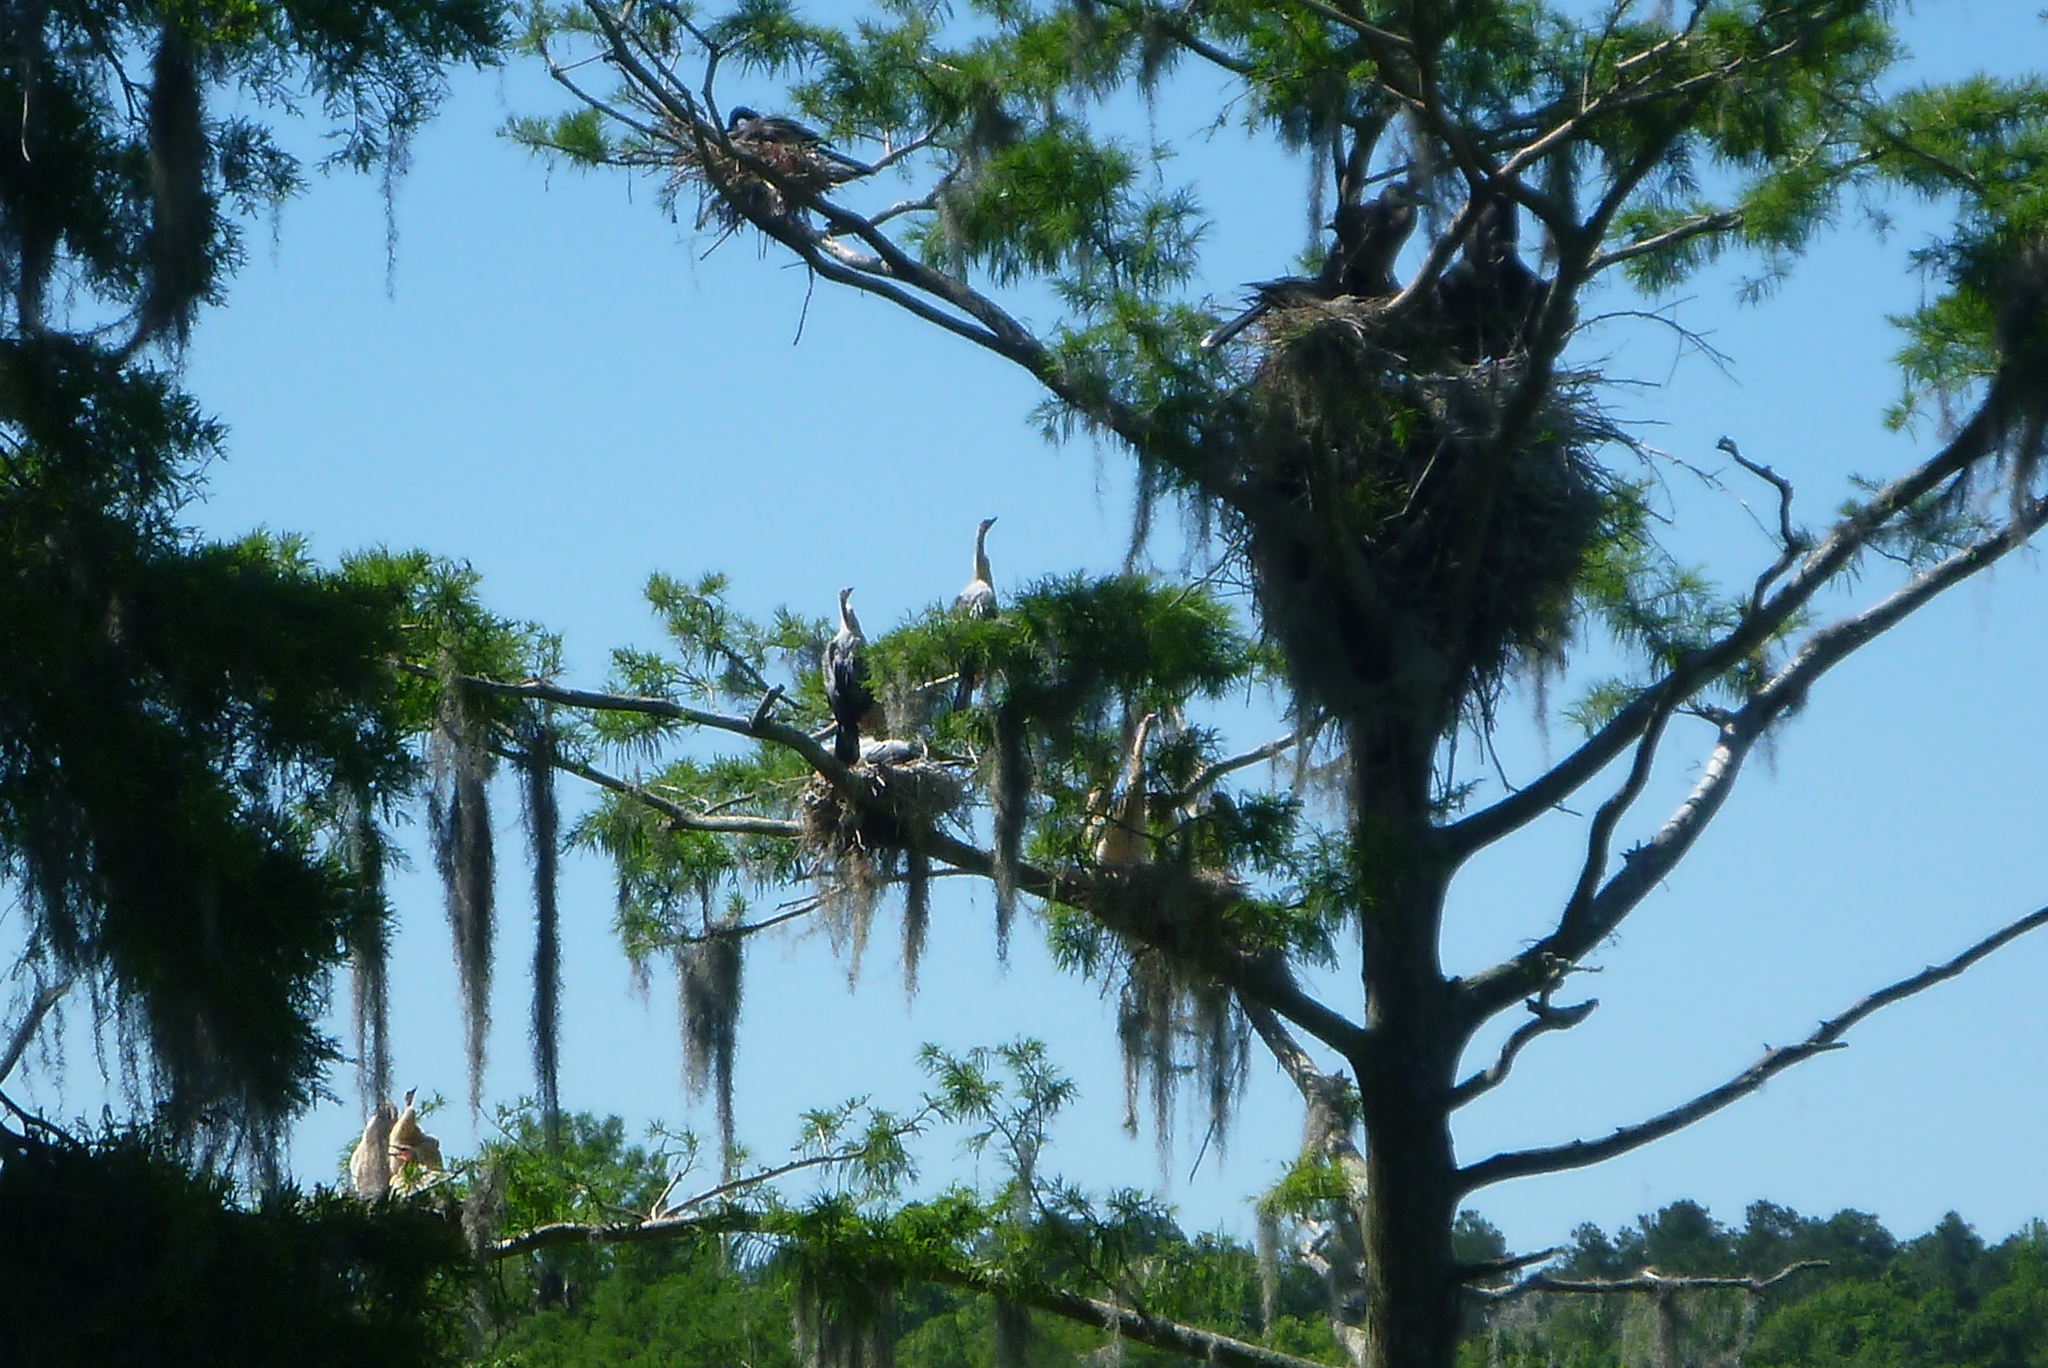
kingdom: Animalia
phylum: Chordata
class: Aves
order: Suliformes
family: Anhingidae
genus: Anhinga
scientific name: Anhinga anhinga
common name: Anhinga
